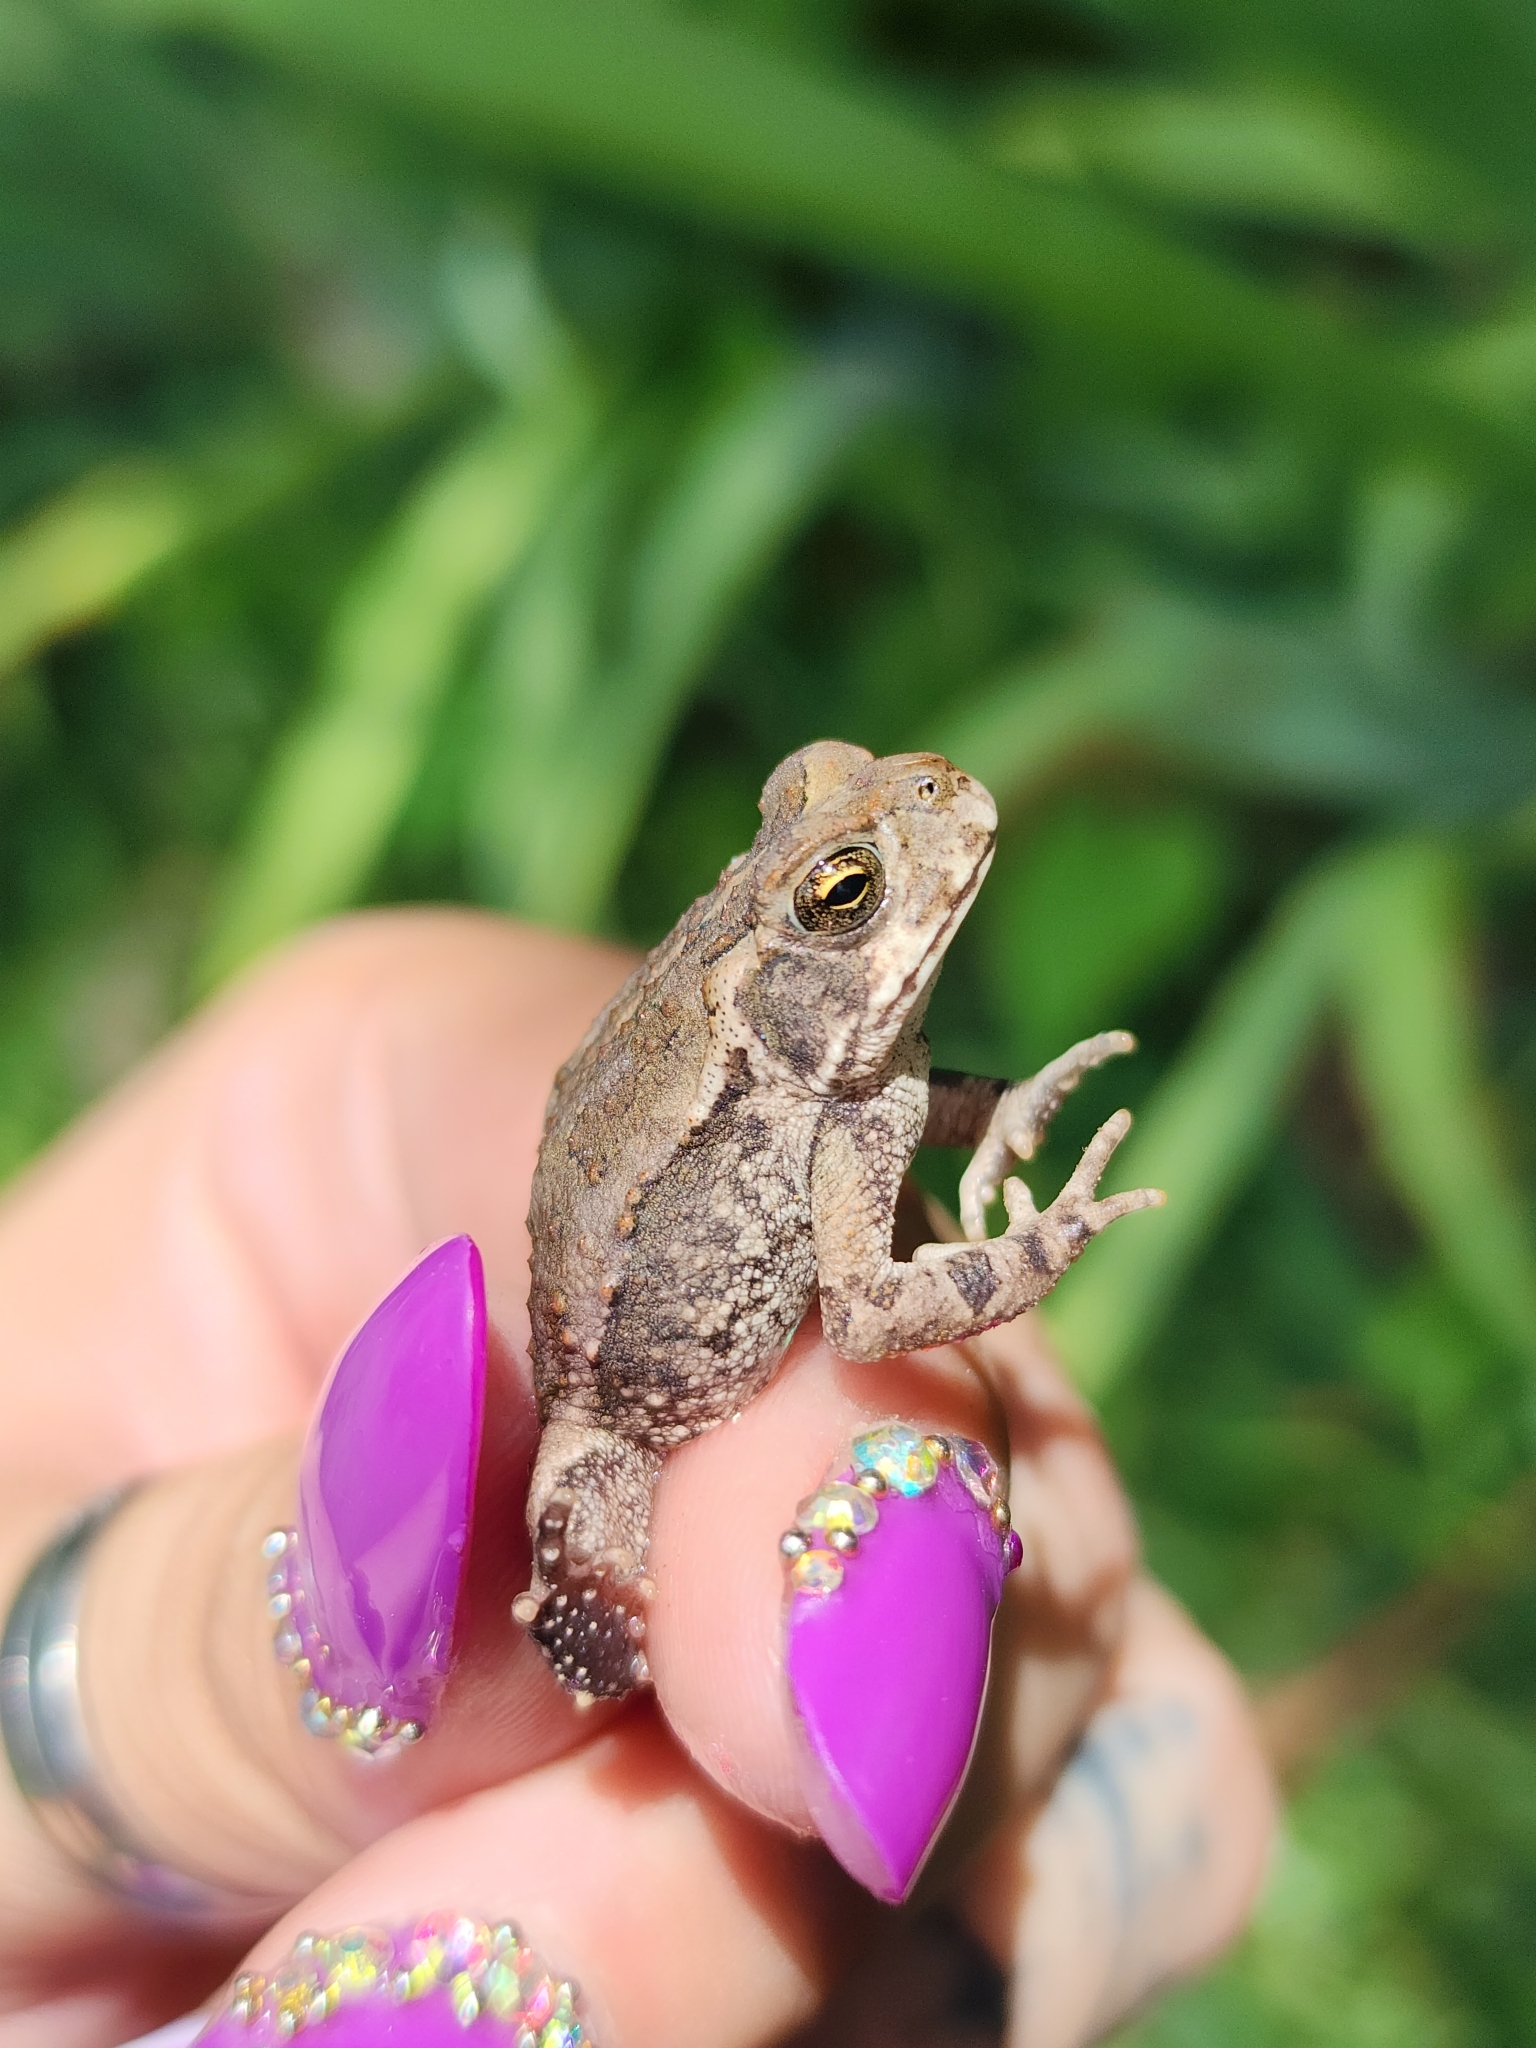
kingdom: Animalia
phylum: Chordata
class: Amphibia
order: Anura
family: Bufonidae
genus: Rhinella
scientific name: Rhinella arenarum
